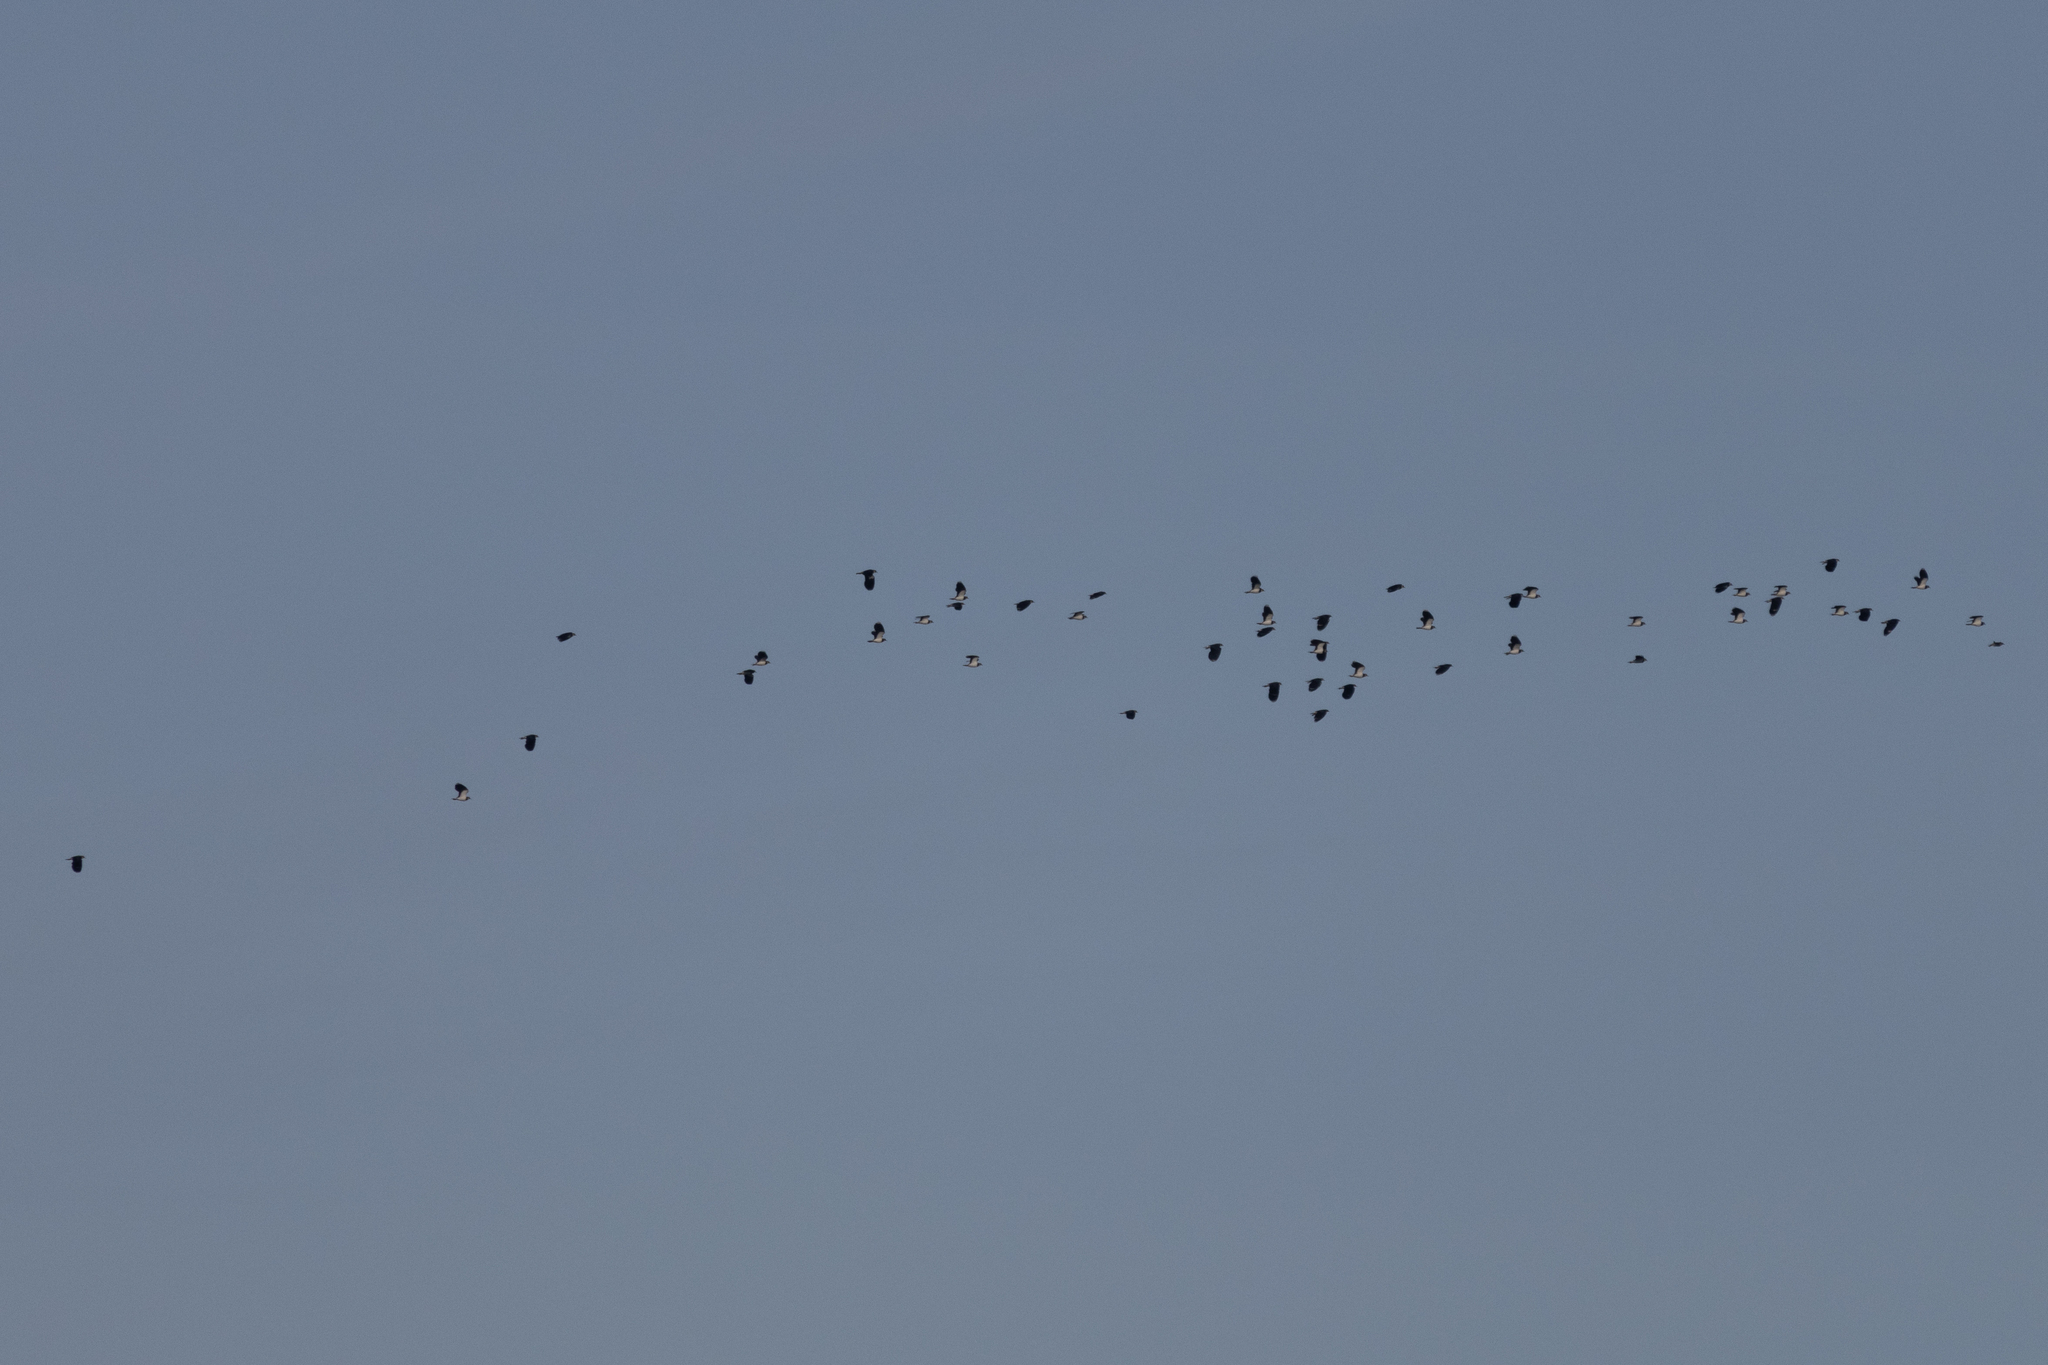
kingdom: Animalia
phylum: Chordata
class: Aves
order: Charadriiformes
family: Charadriidae
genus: Vanellus
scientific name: Vanellus vanellus
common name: Northern lapwing
